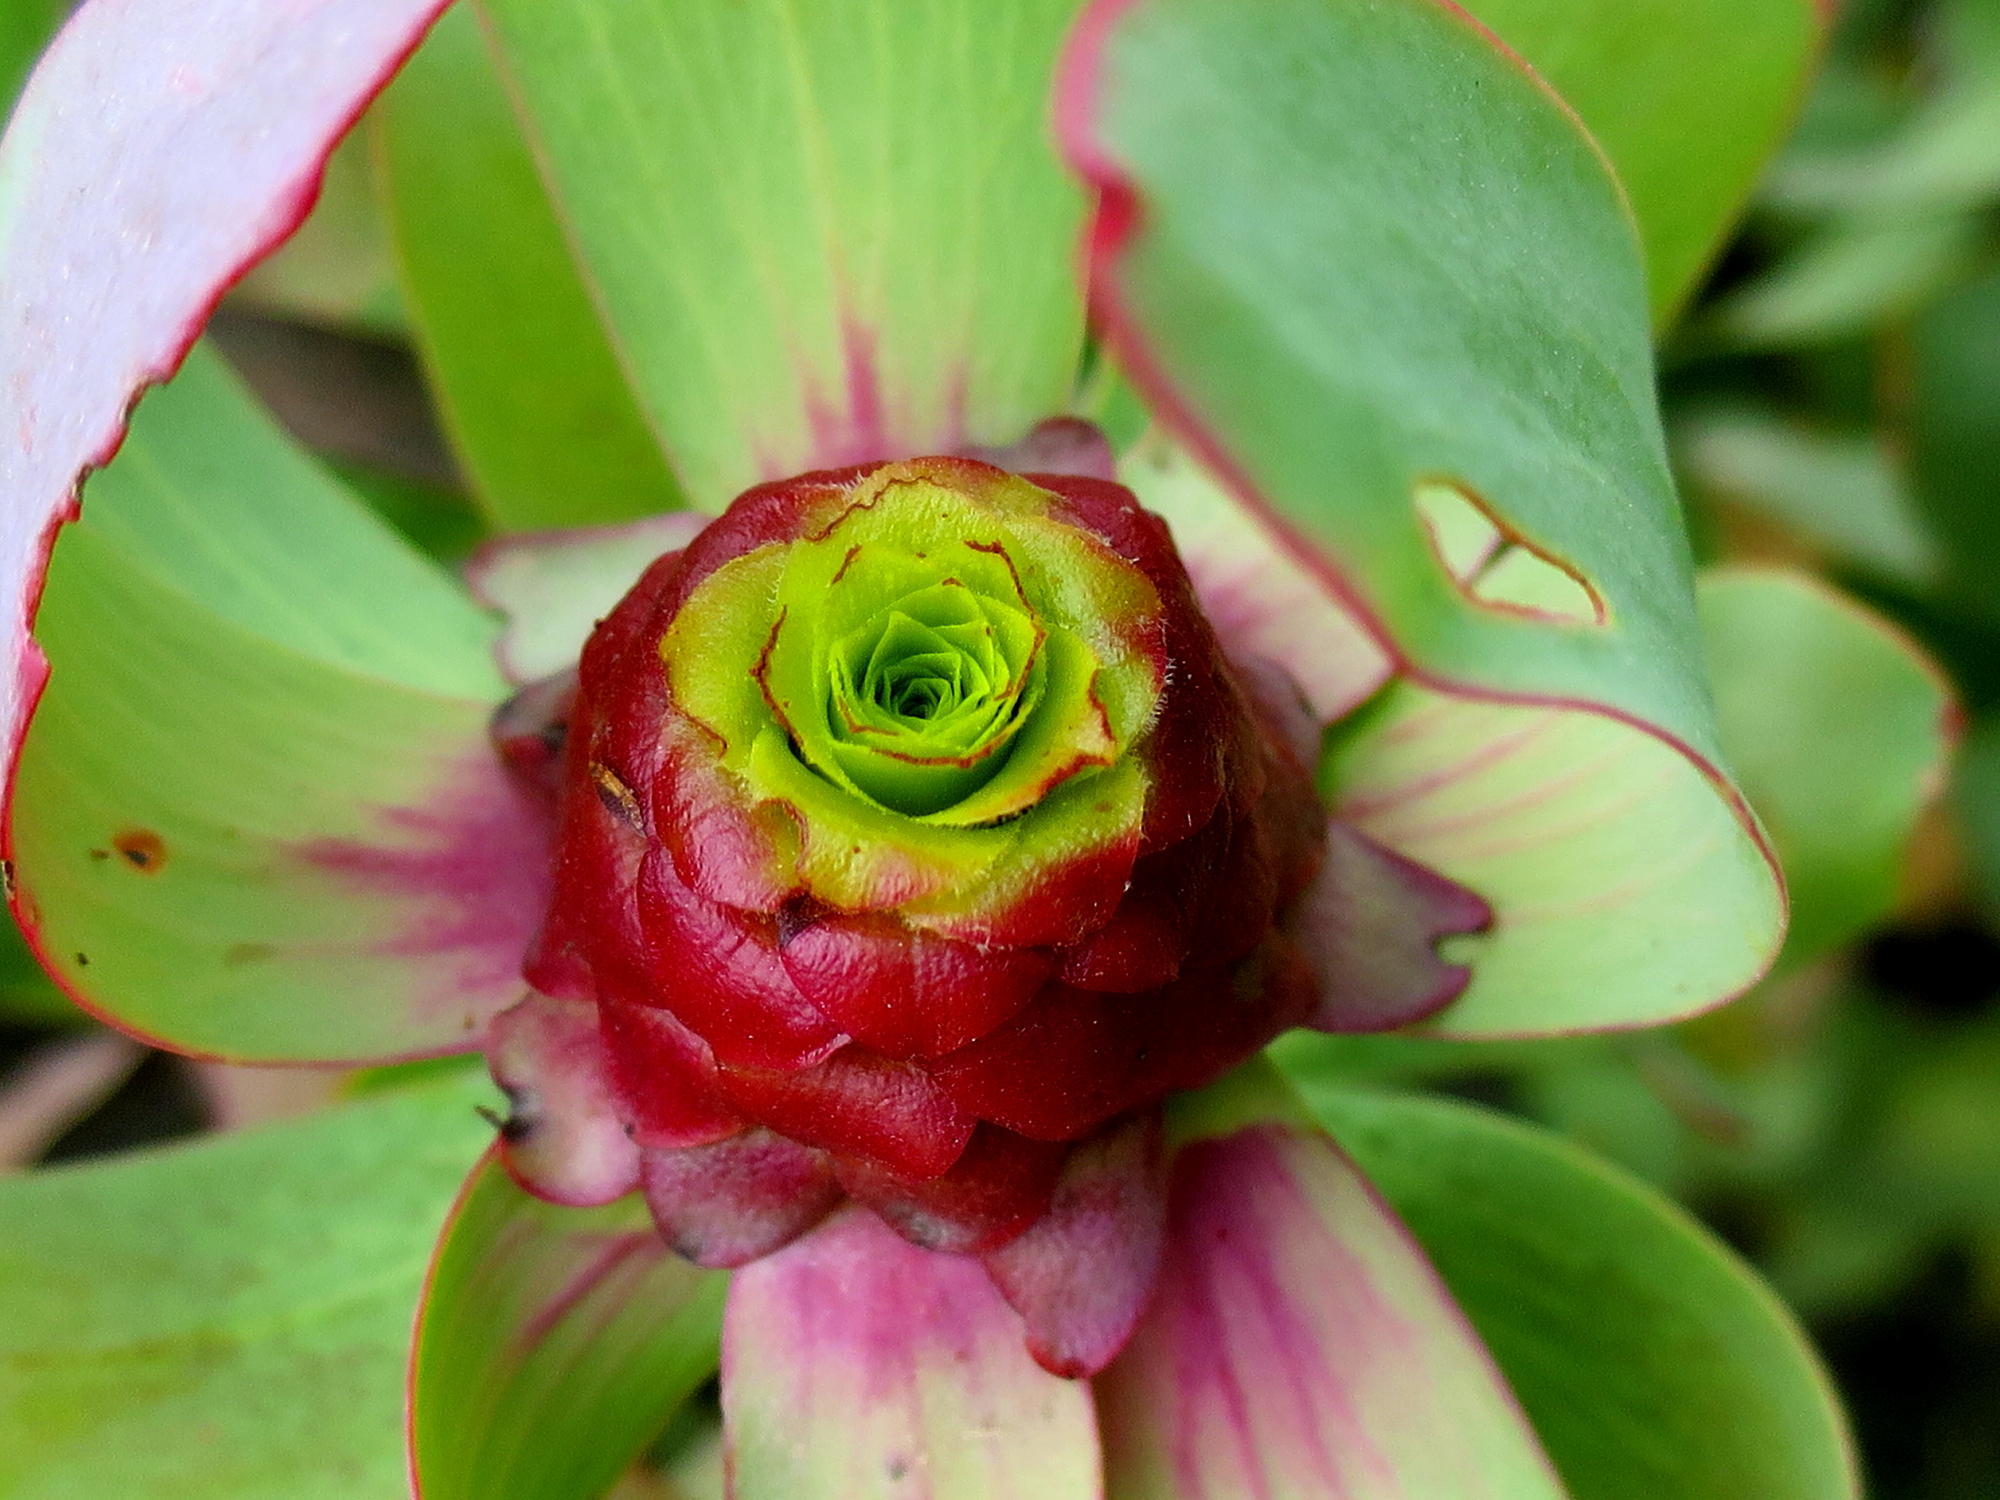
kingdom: Plantae
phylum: Tracheophyta
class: Magnoliopsida
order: Proteales
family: Proteaceae
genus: Leucadendron
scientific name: Leucadendron tinctum
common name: Spicy conebush
